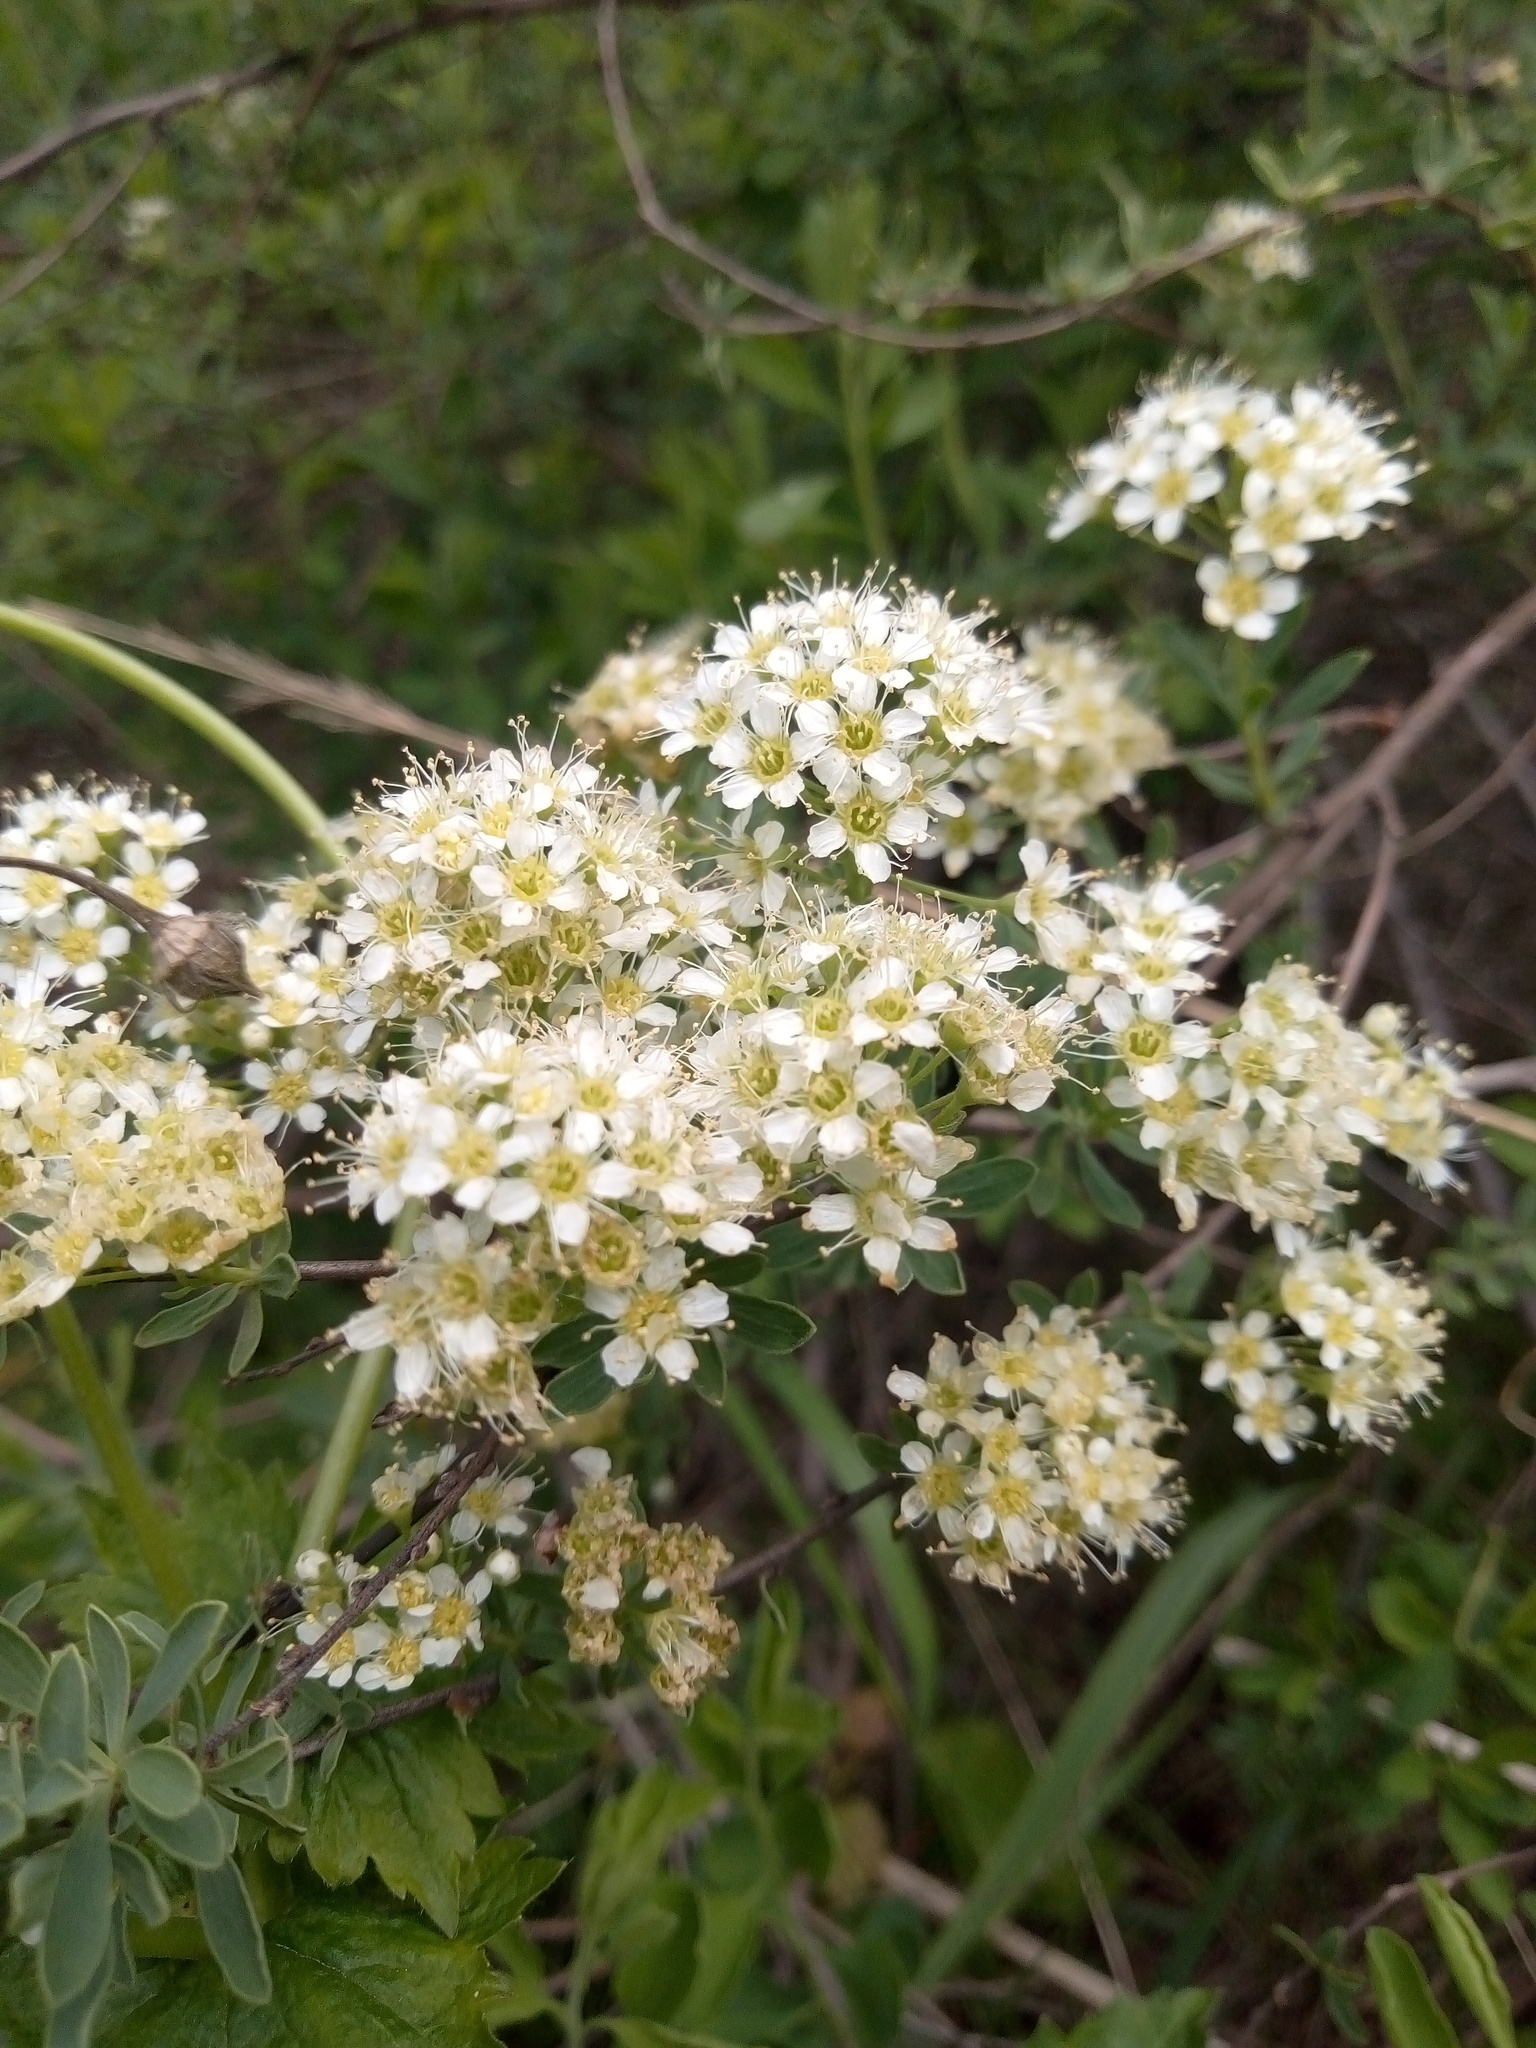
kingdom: Plantae
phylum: Tracheophyta
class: Magnoliopsida
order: Rosales
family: Rosaceae
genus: Spiraea
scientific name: Spiraea crenata
